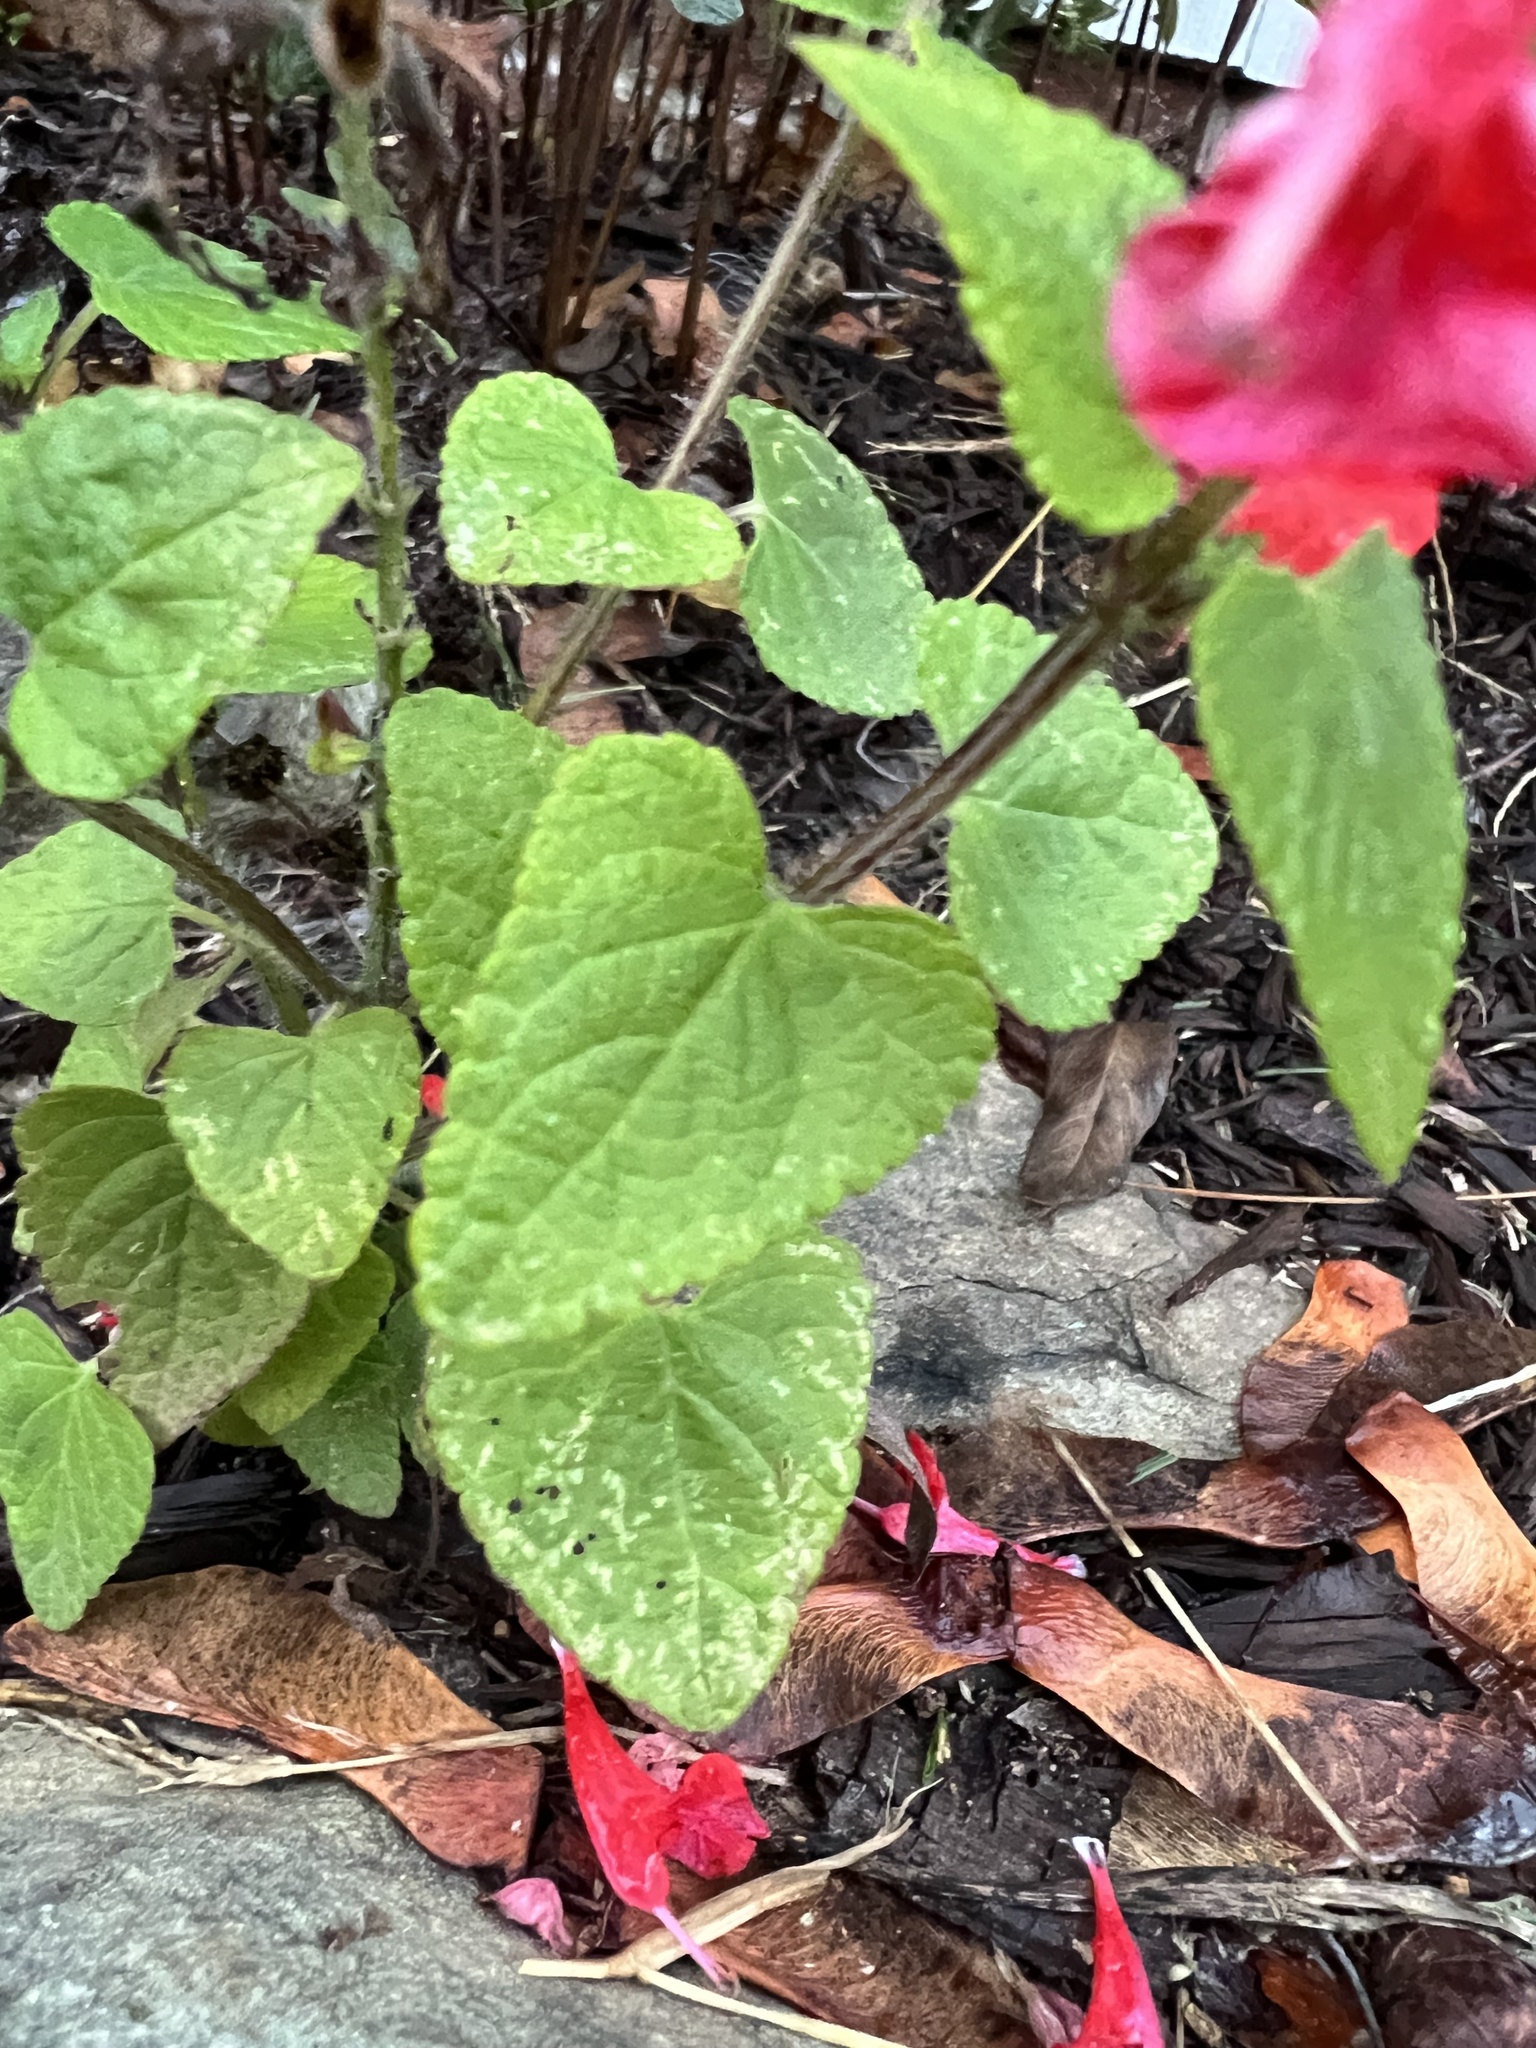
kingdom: Plantae
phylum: Tracheophyta
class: Magnoliopsida
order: Lamiales
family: Lamiaceae
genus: Salvia
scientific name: Salvia coccinea
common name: Blood sage
